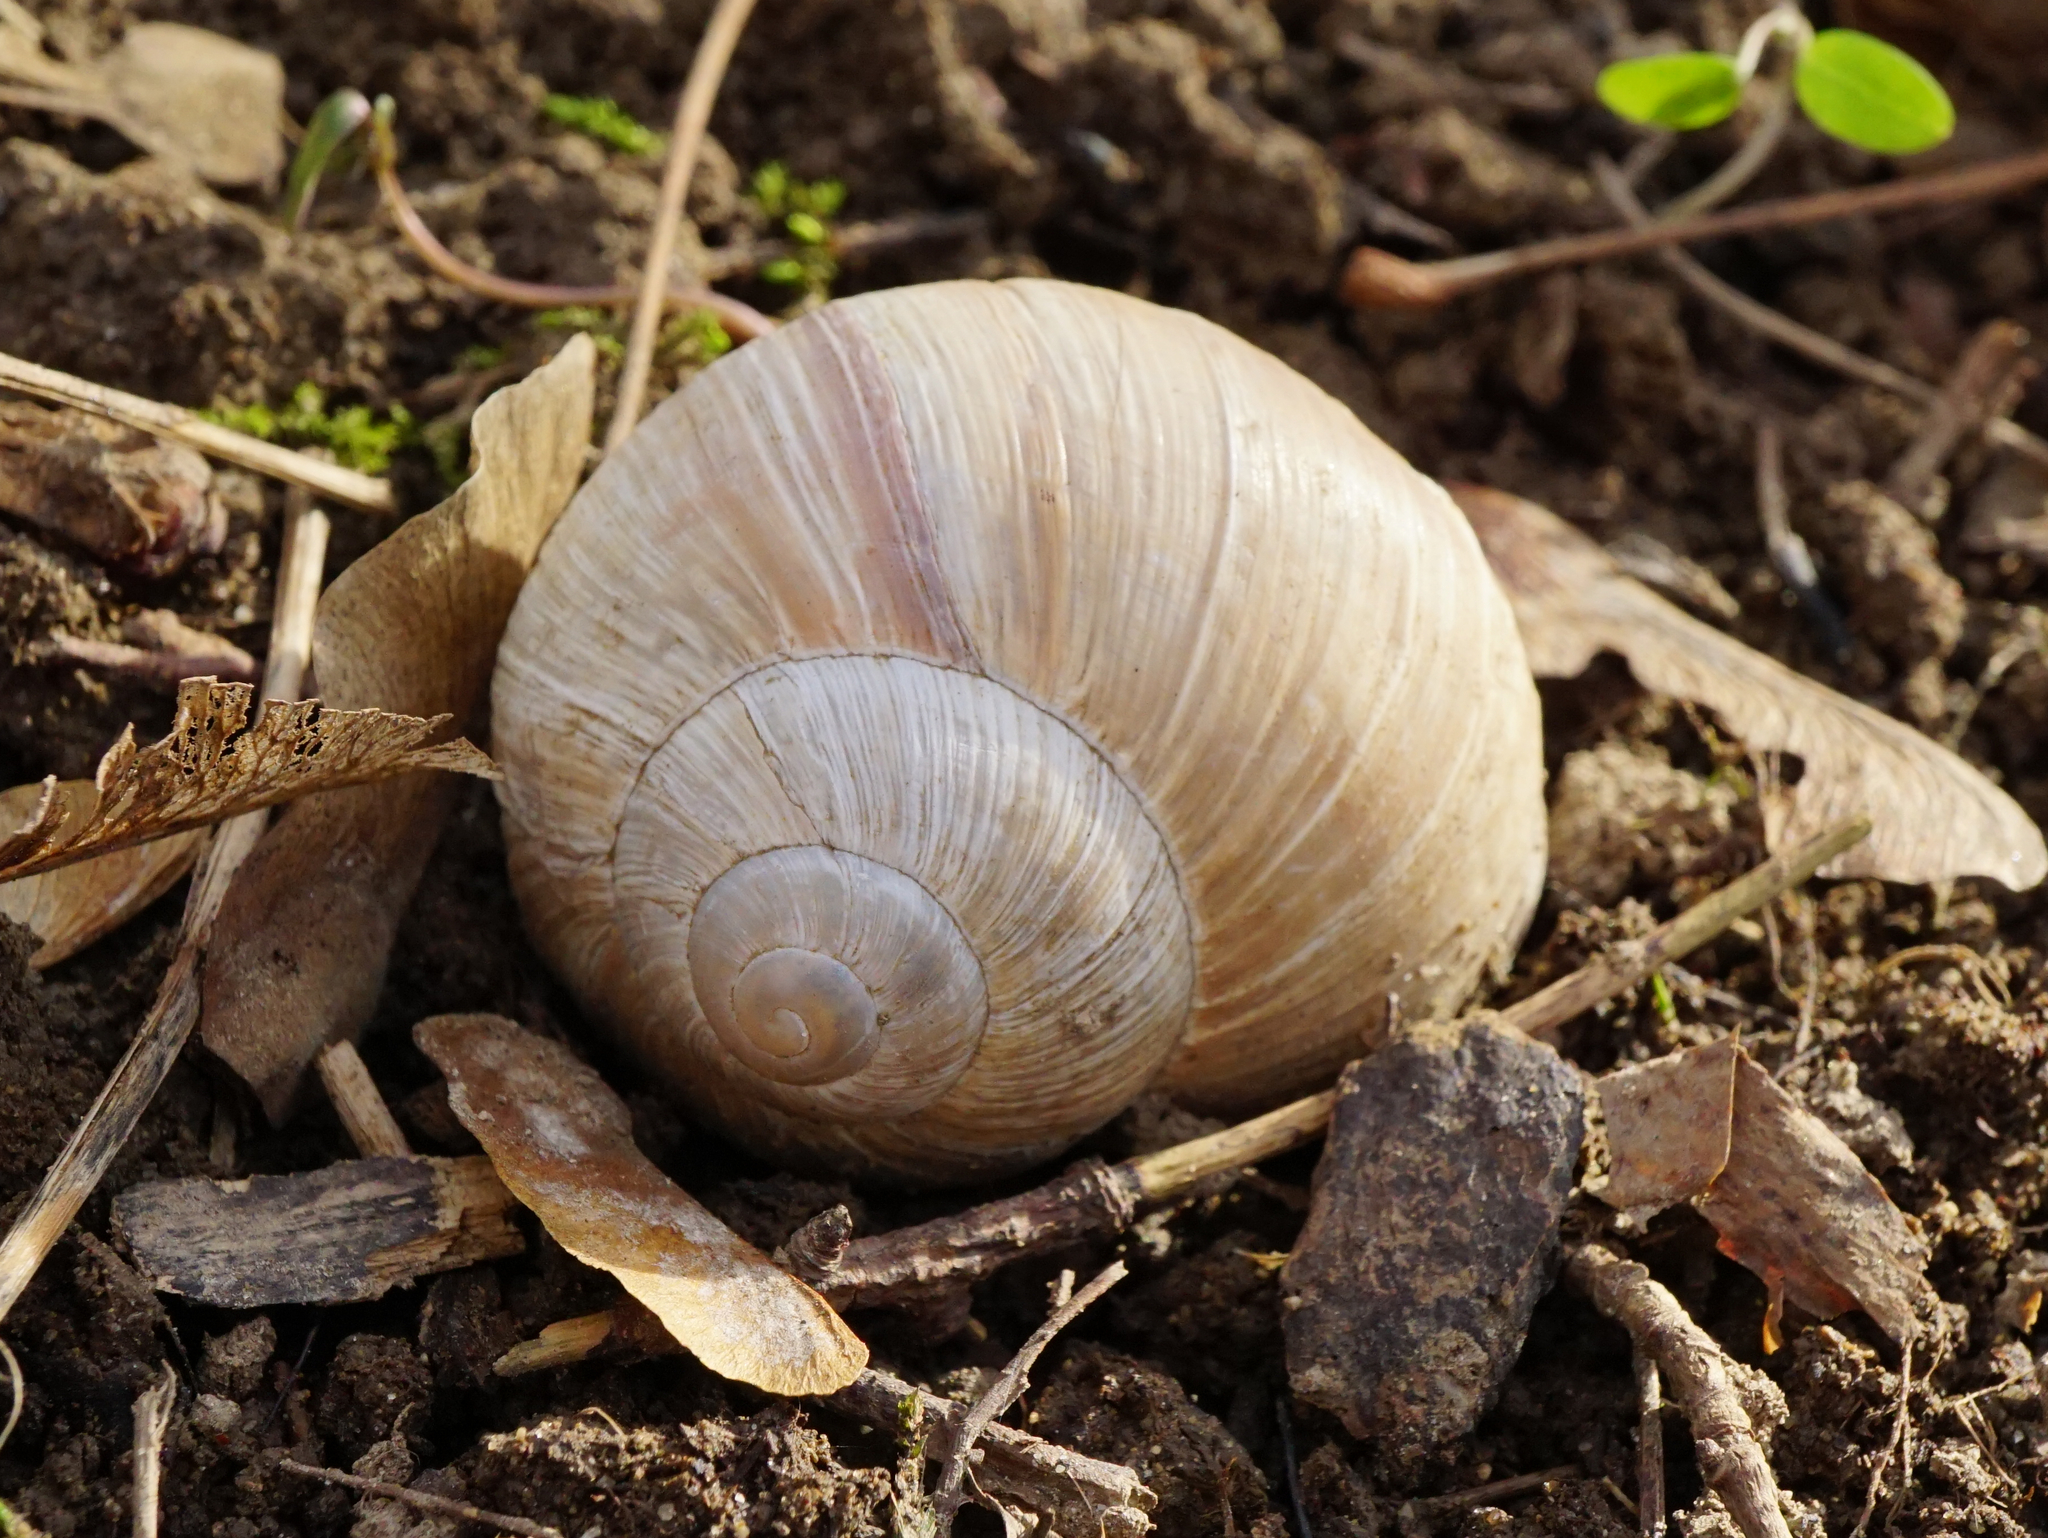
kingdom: Animalia
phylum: Mollusca
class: Gastropoda
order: Stylommatophora
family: Helicidae
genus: Helix
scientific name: Helix pomatia
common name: Roman snail
